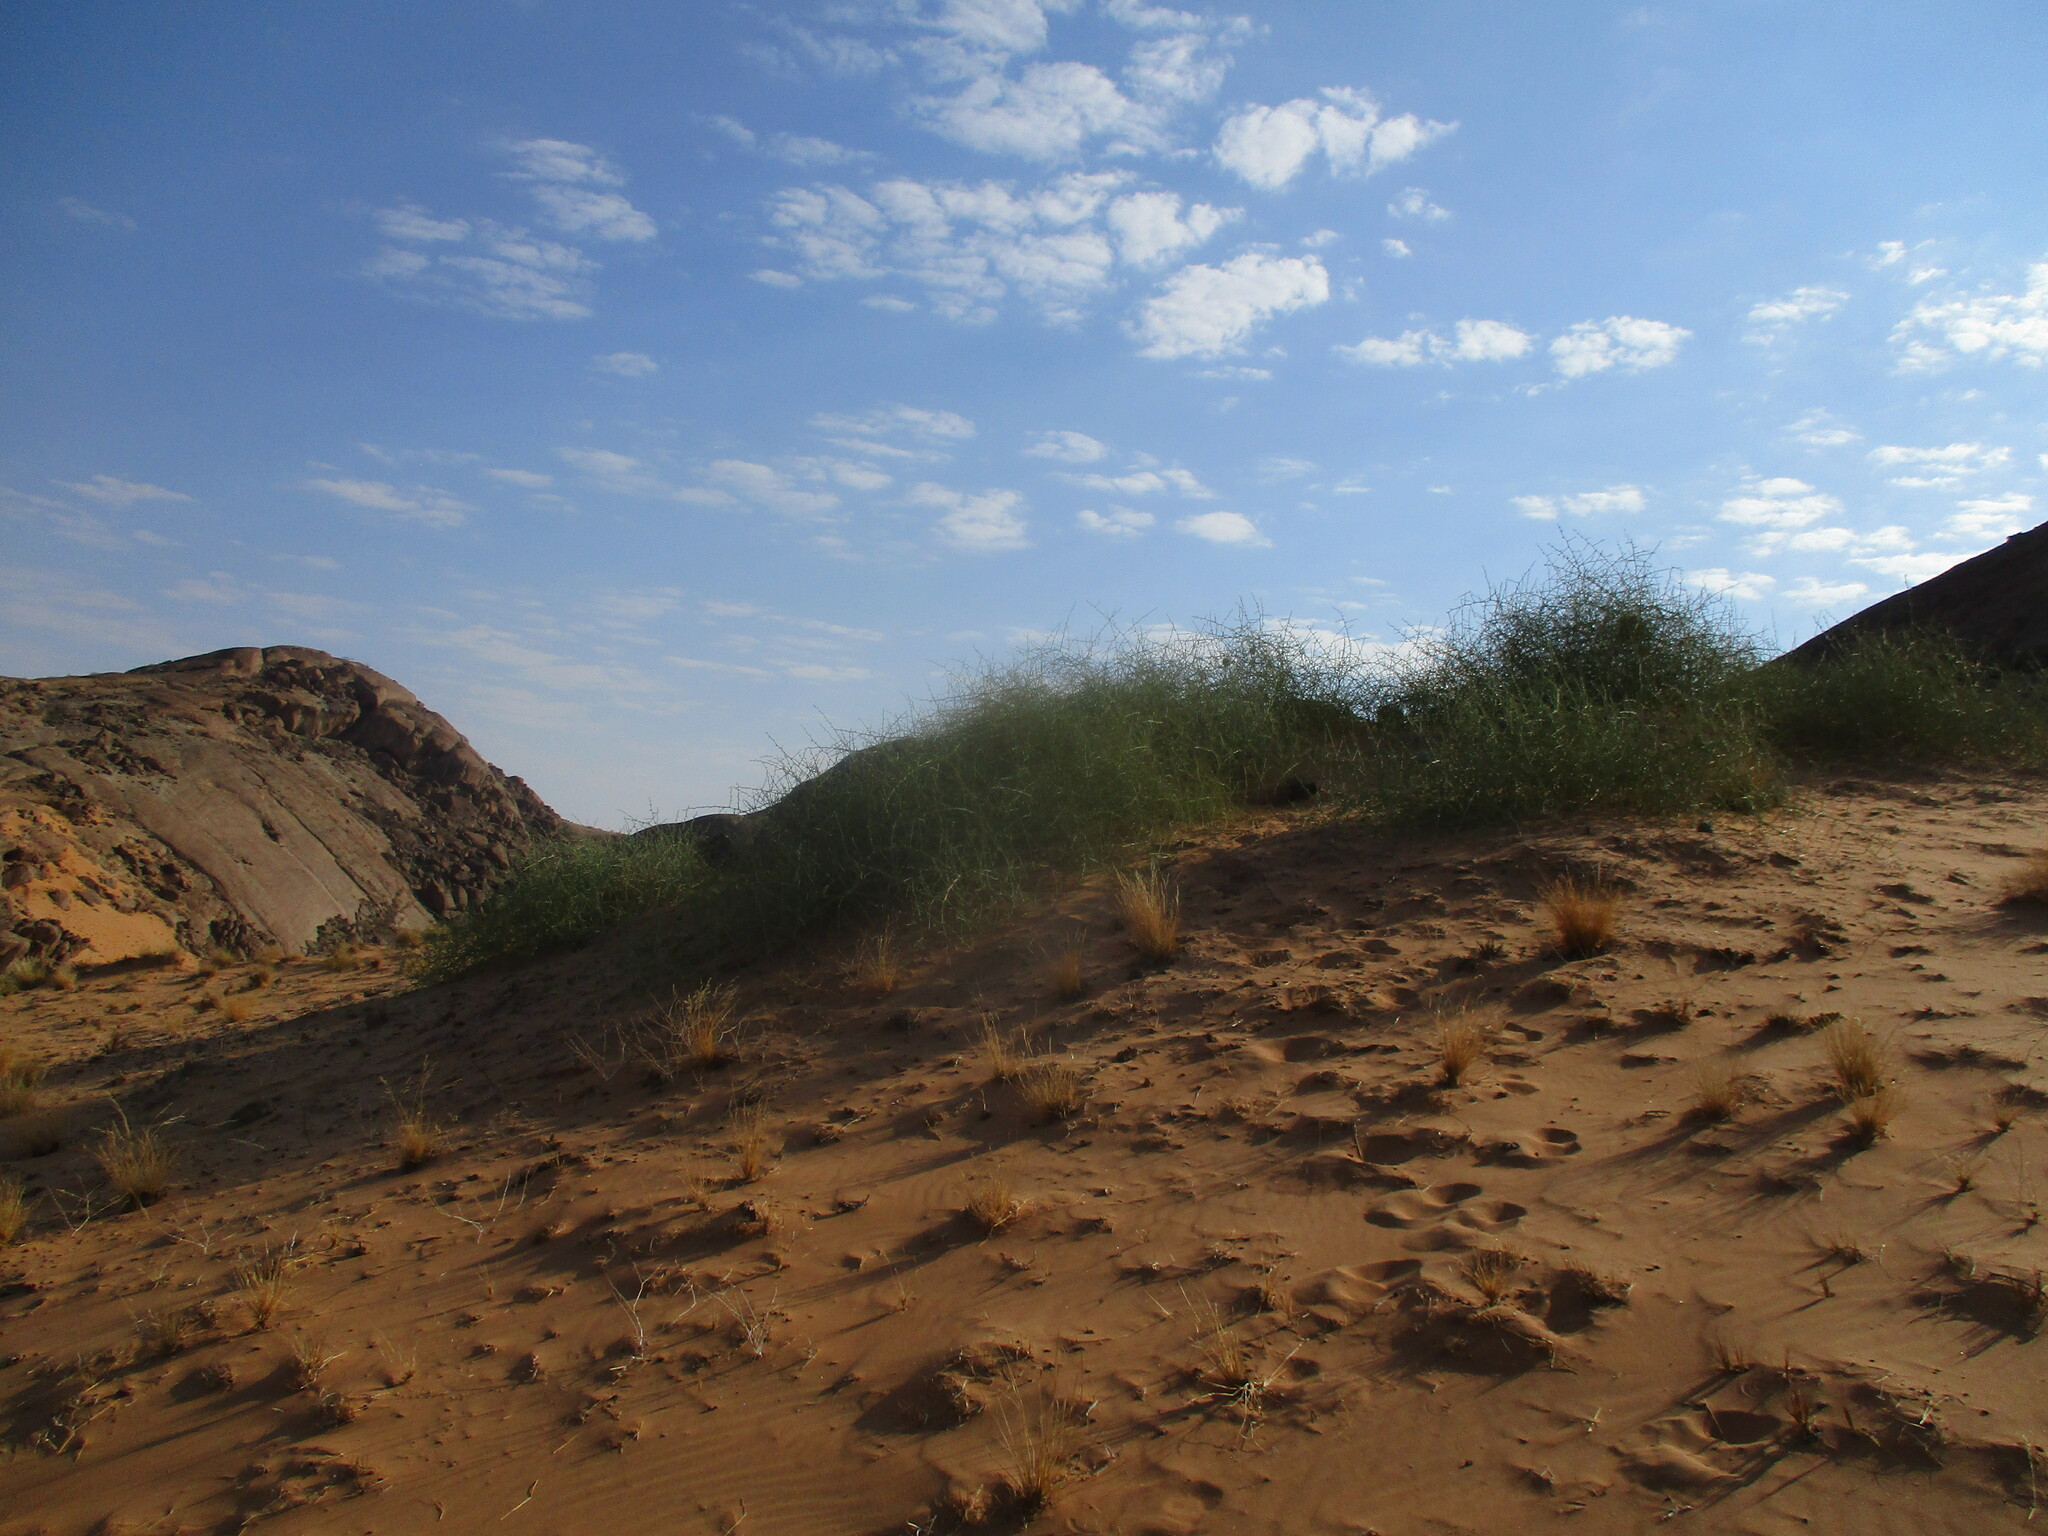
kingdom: Plantae
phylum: Tracheophyta
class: Magnoliopsida
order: Cucurbitales
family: Cucurbitaceae
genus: Acanthosicyos
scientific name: Acanthosicyos horridus
